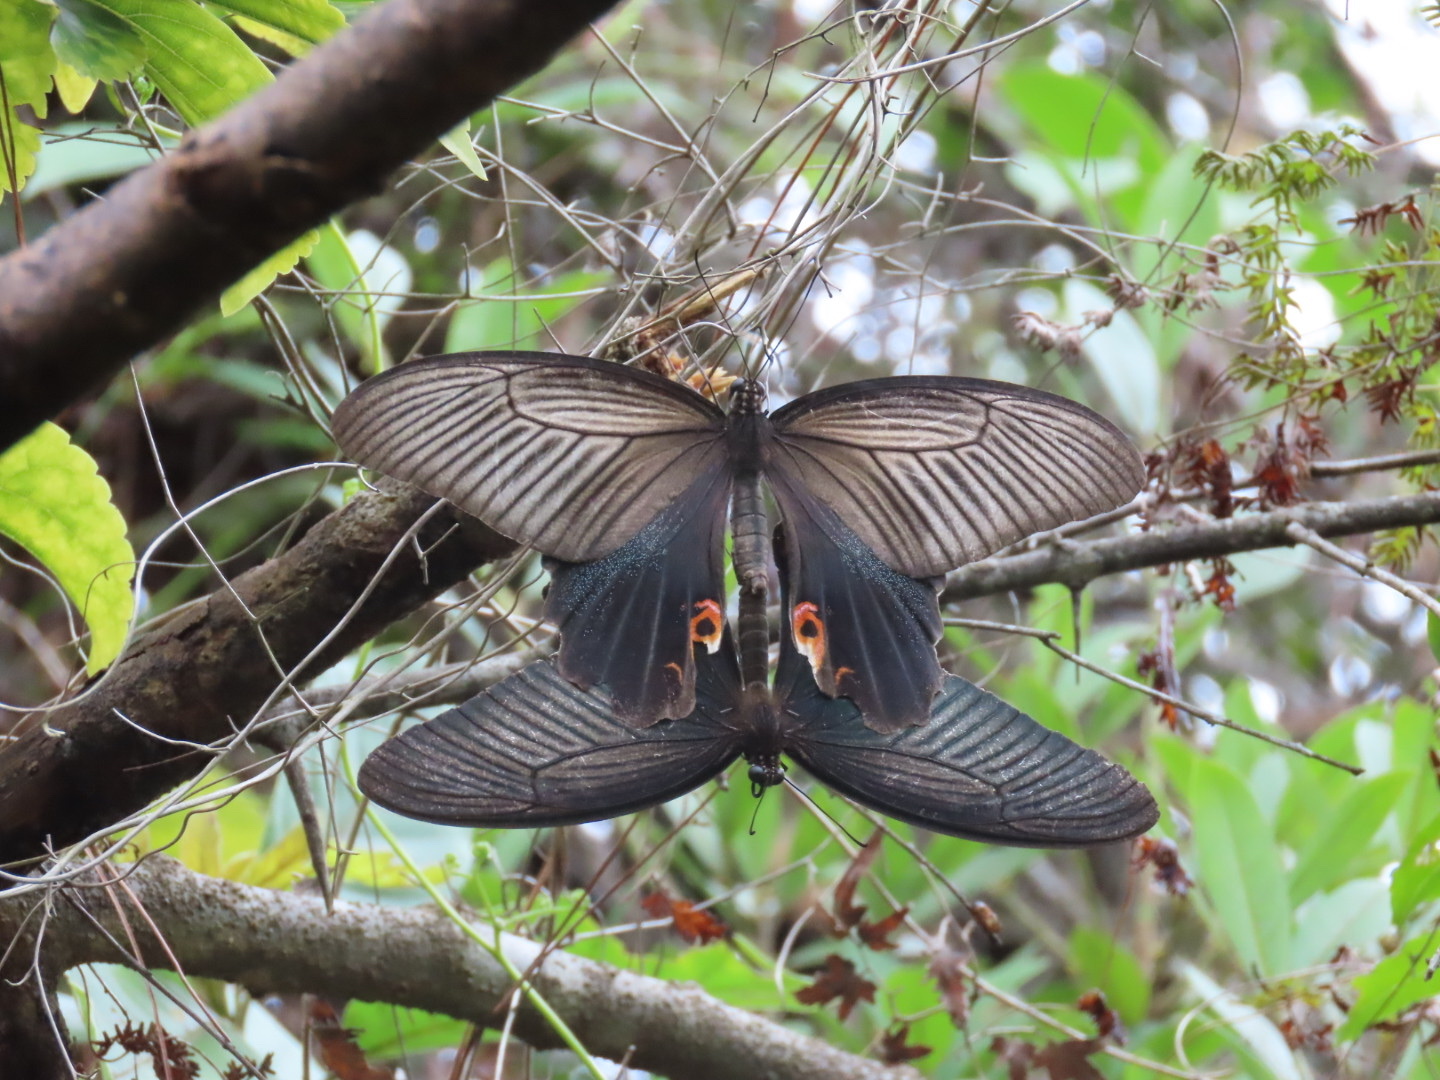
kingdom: Animalia
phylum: Arthropoda
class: Insecta
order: Lepidoptera
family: Papilionidae
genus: Papilio
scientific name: Papilio protenor
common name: Spangle
